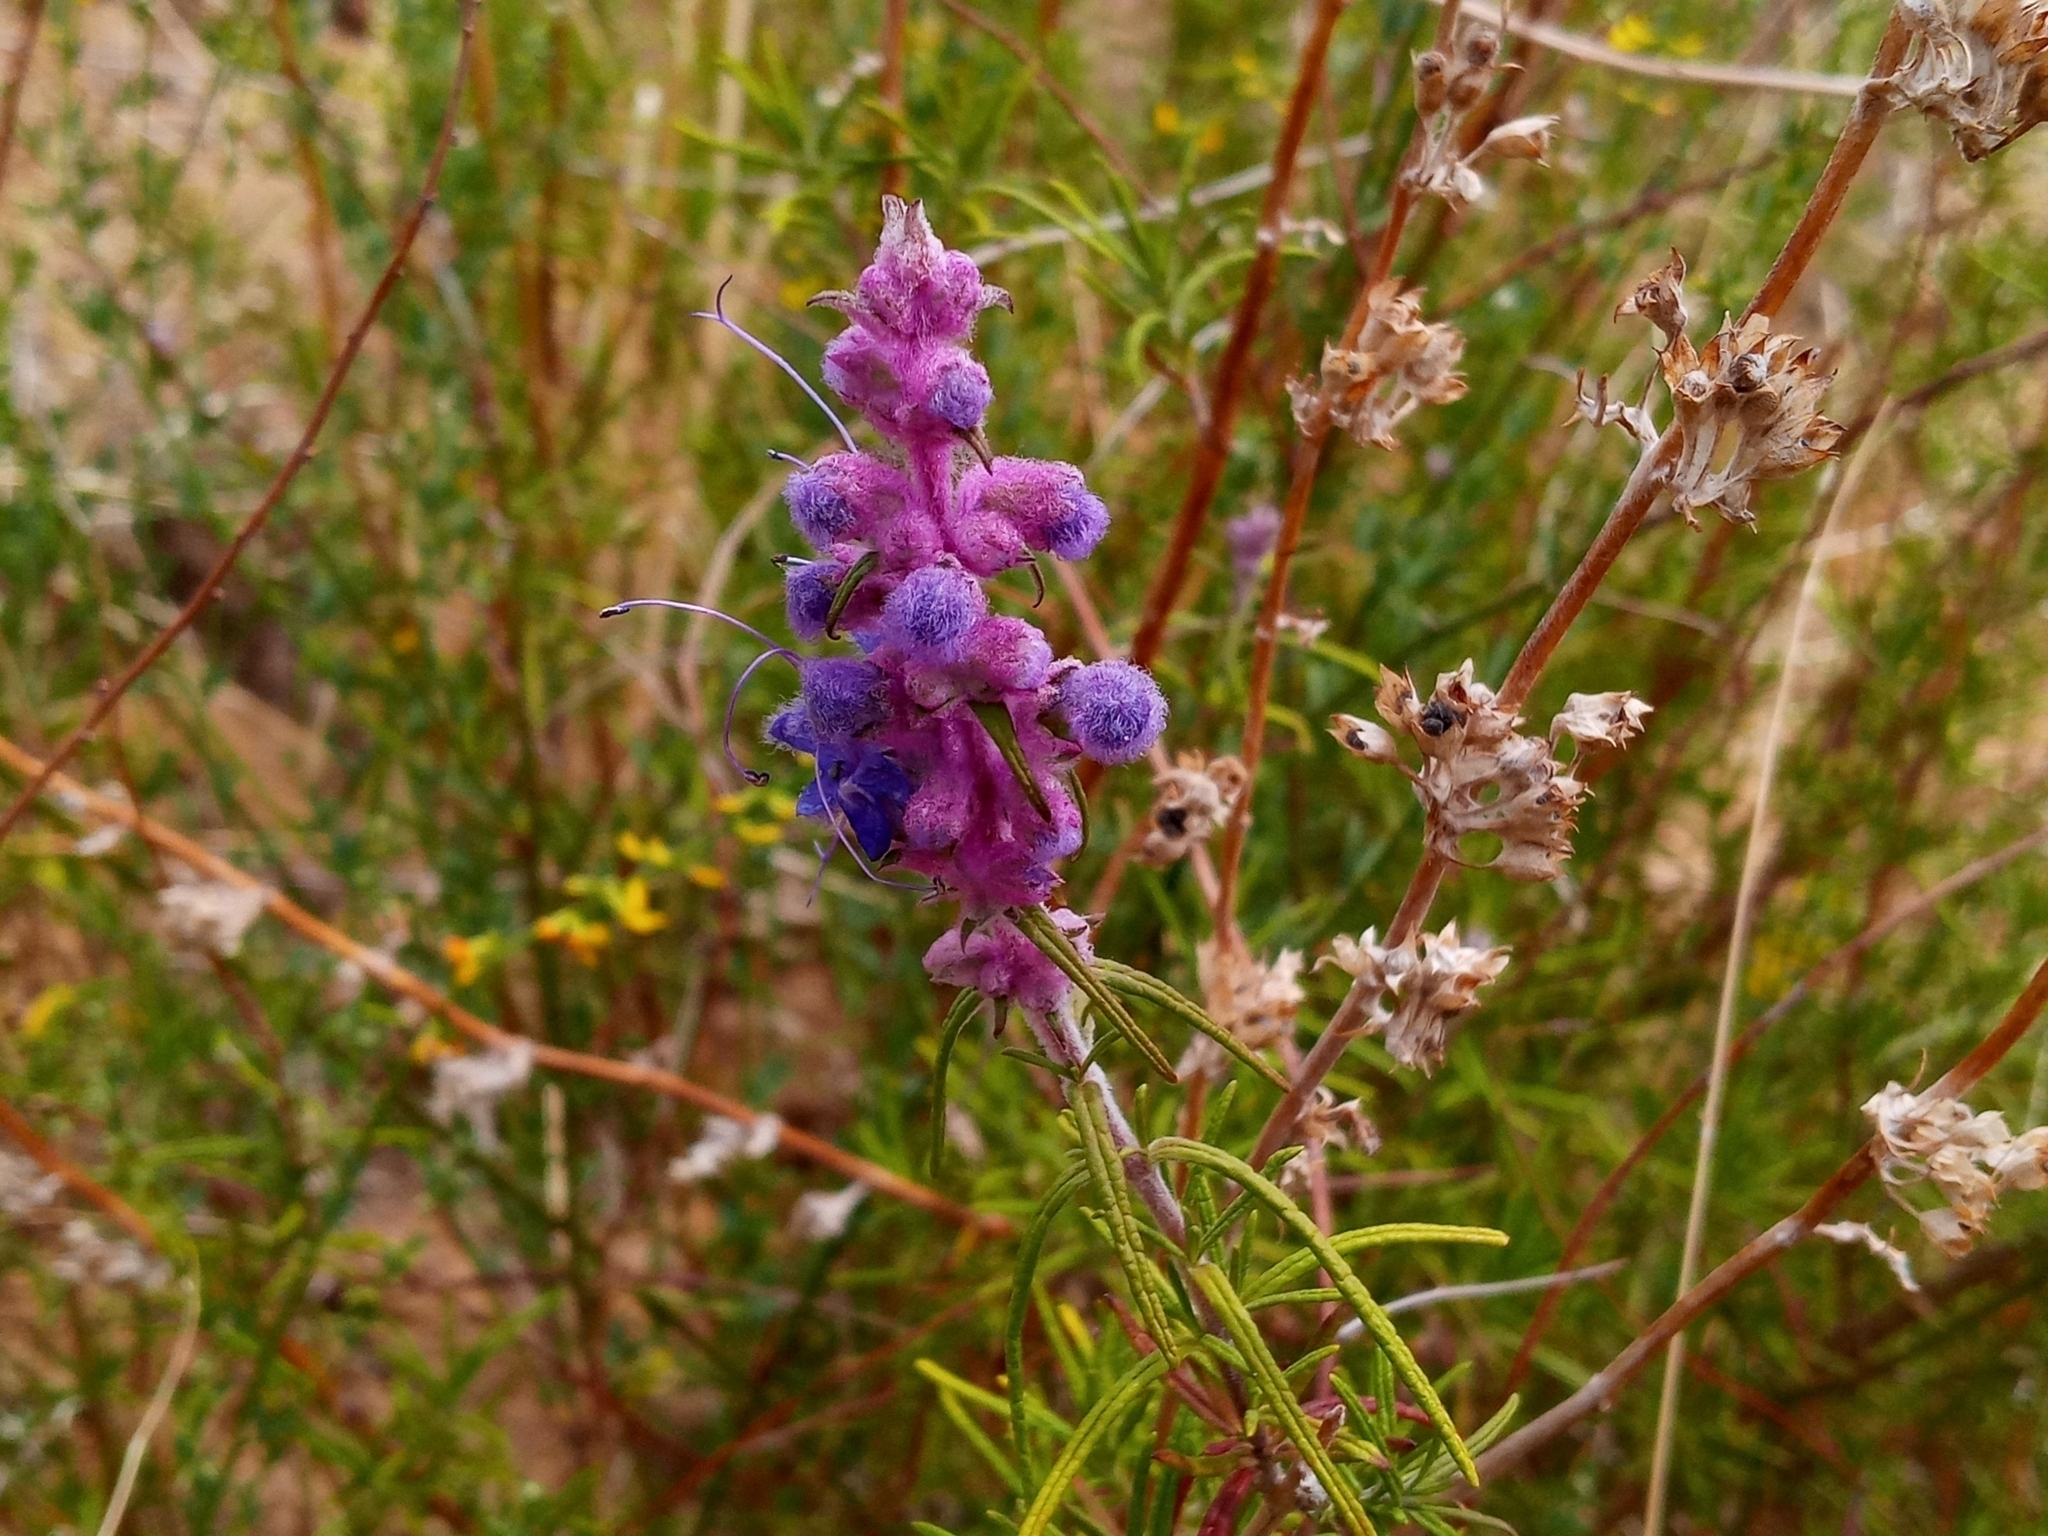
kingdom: Plantae
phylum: Tracheophyta
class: Magnoliopsida
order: Lamiales
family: Lamiaceae
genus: Trichostema
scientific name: Trichostema lanatum
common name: Woolly bluecurls
